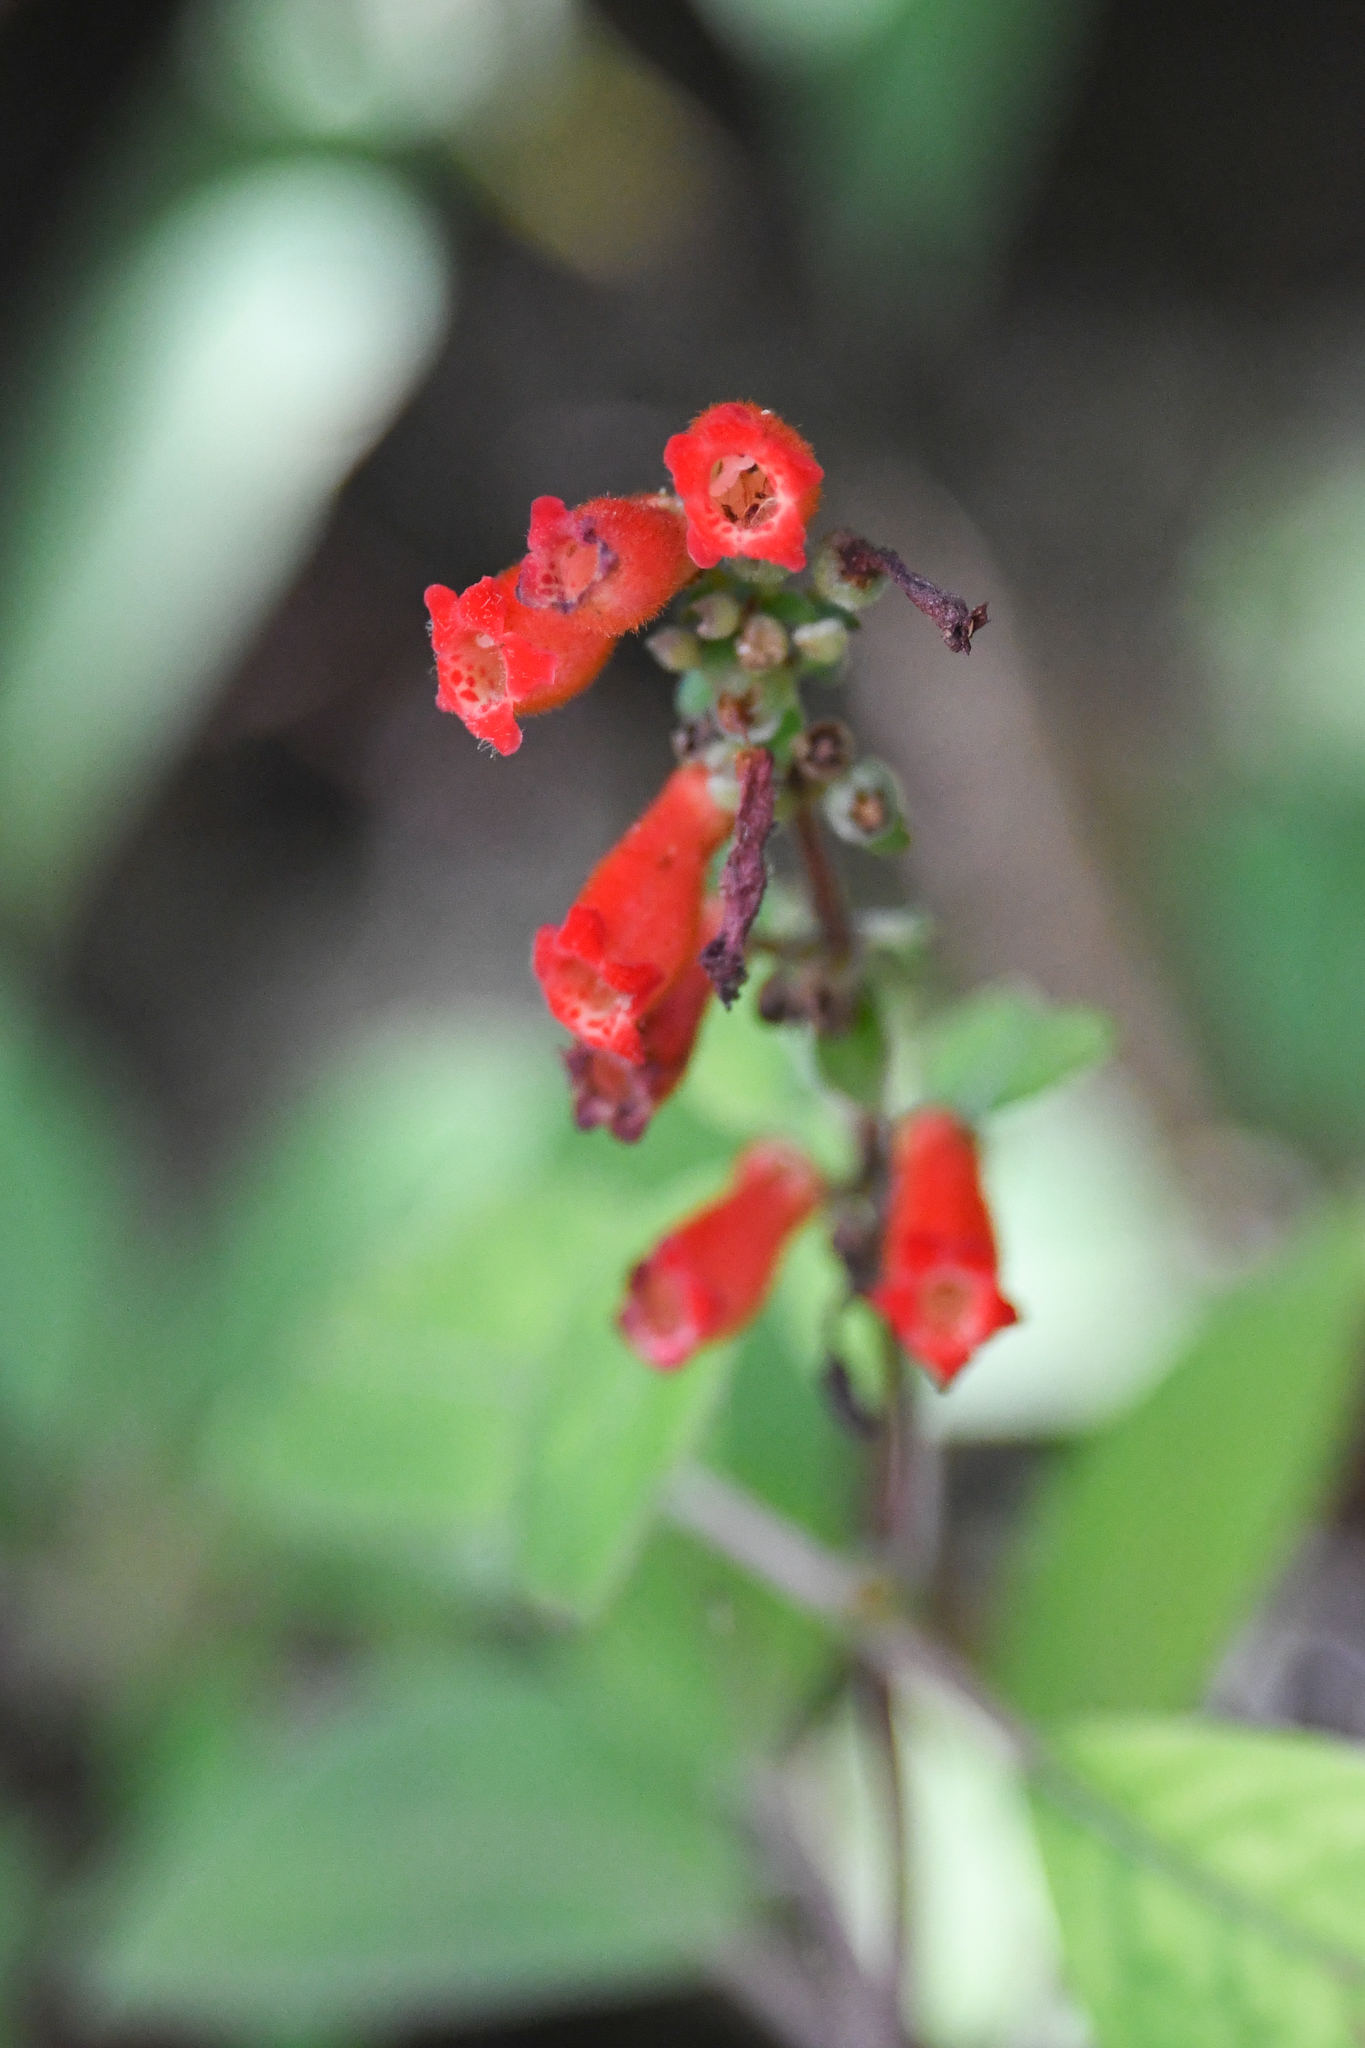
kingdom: Plantae
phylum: Tracheophyta
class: Magnoliopsida
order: Lamiales
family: Gesneriaceae
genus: Kohleria
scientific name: Kohleria spicata
